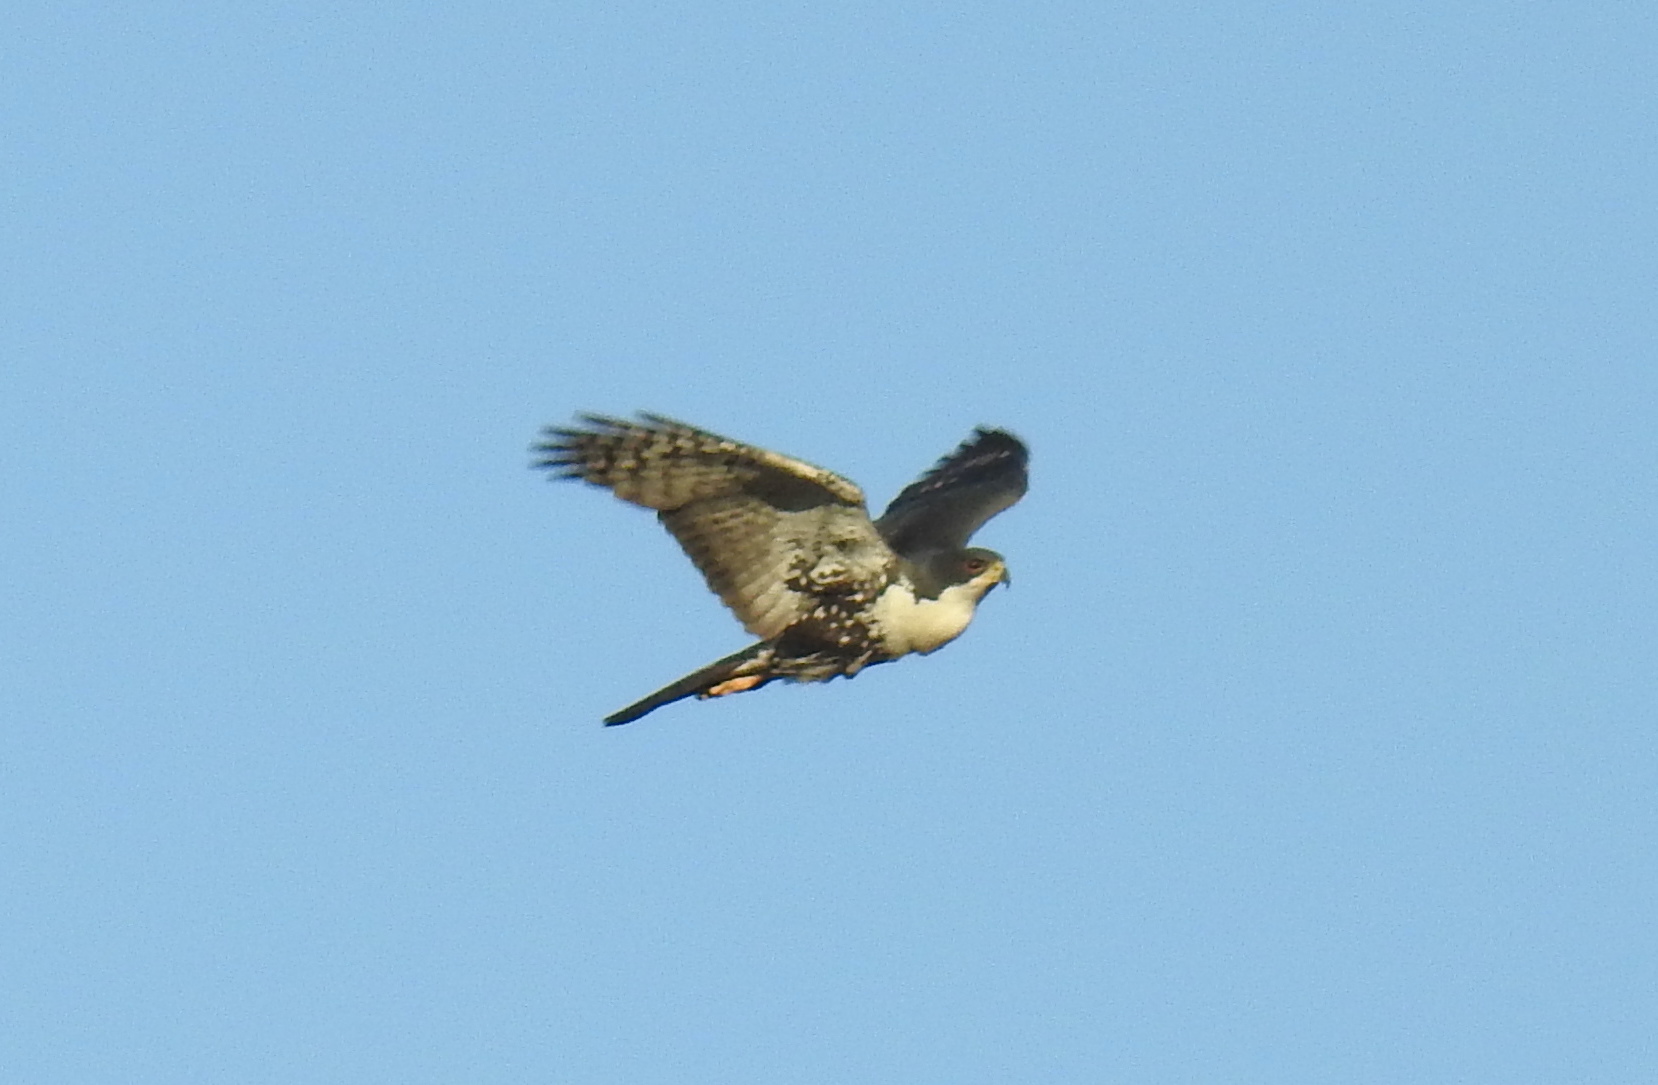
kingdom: Animalia
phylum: Chordata
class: Aves
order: Accipitriformes
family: Accipitridae
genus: Accipiter
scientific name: Accipiter melanoleucus
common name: Black sparrowhawk
